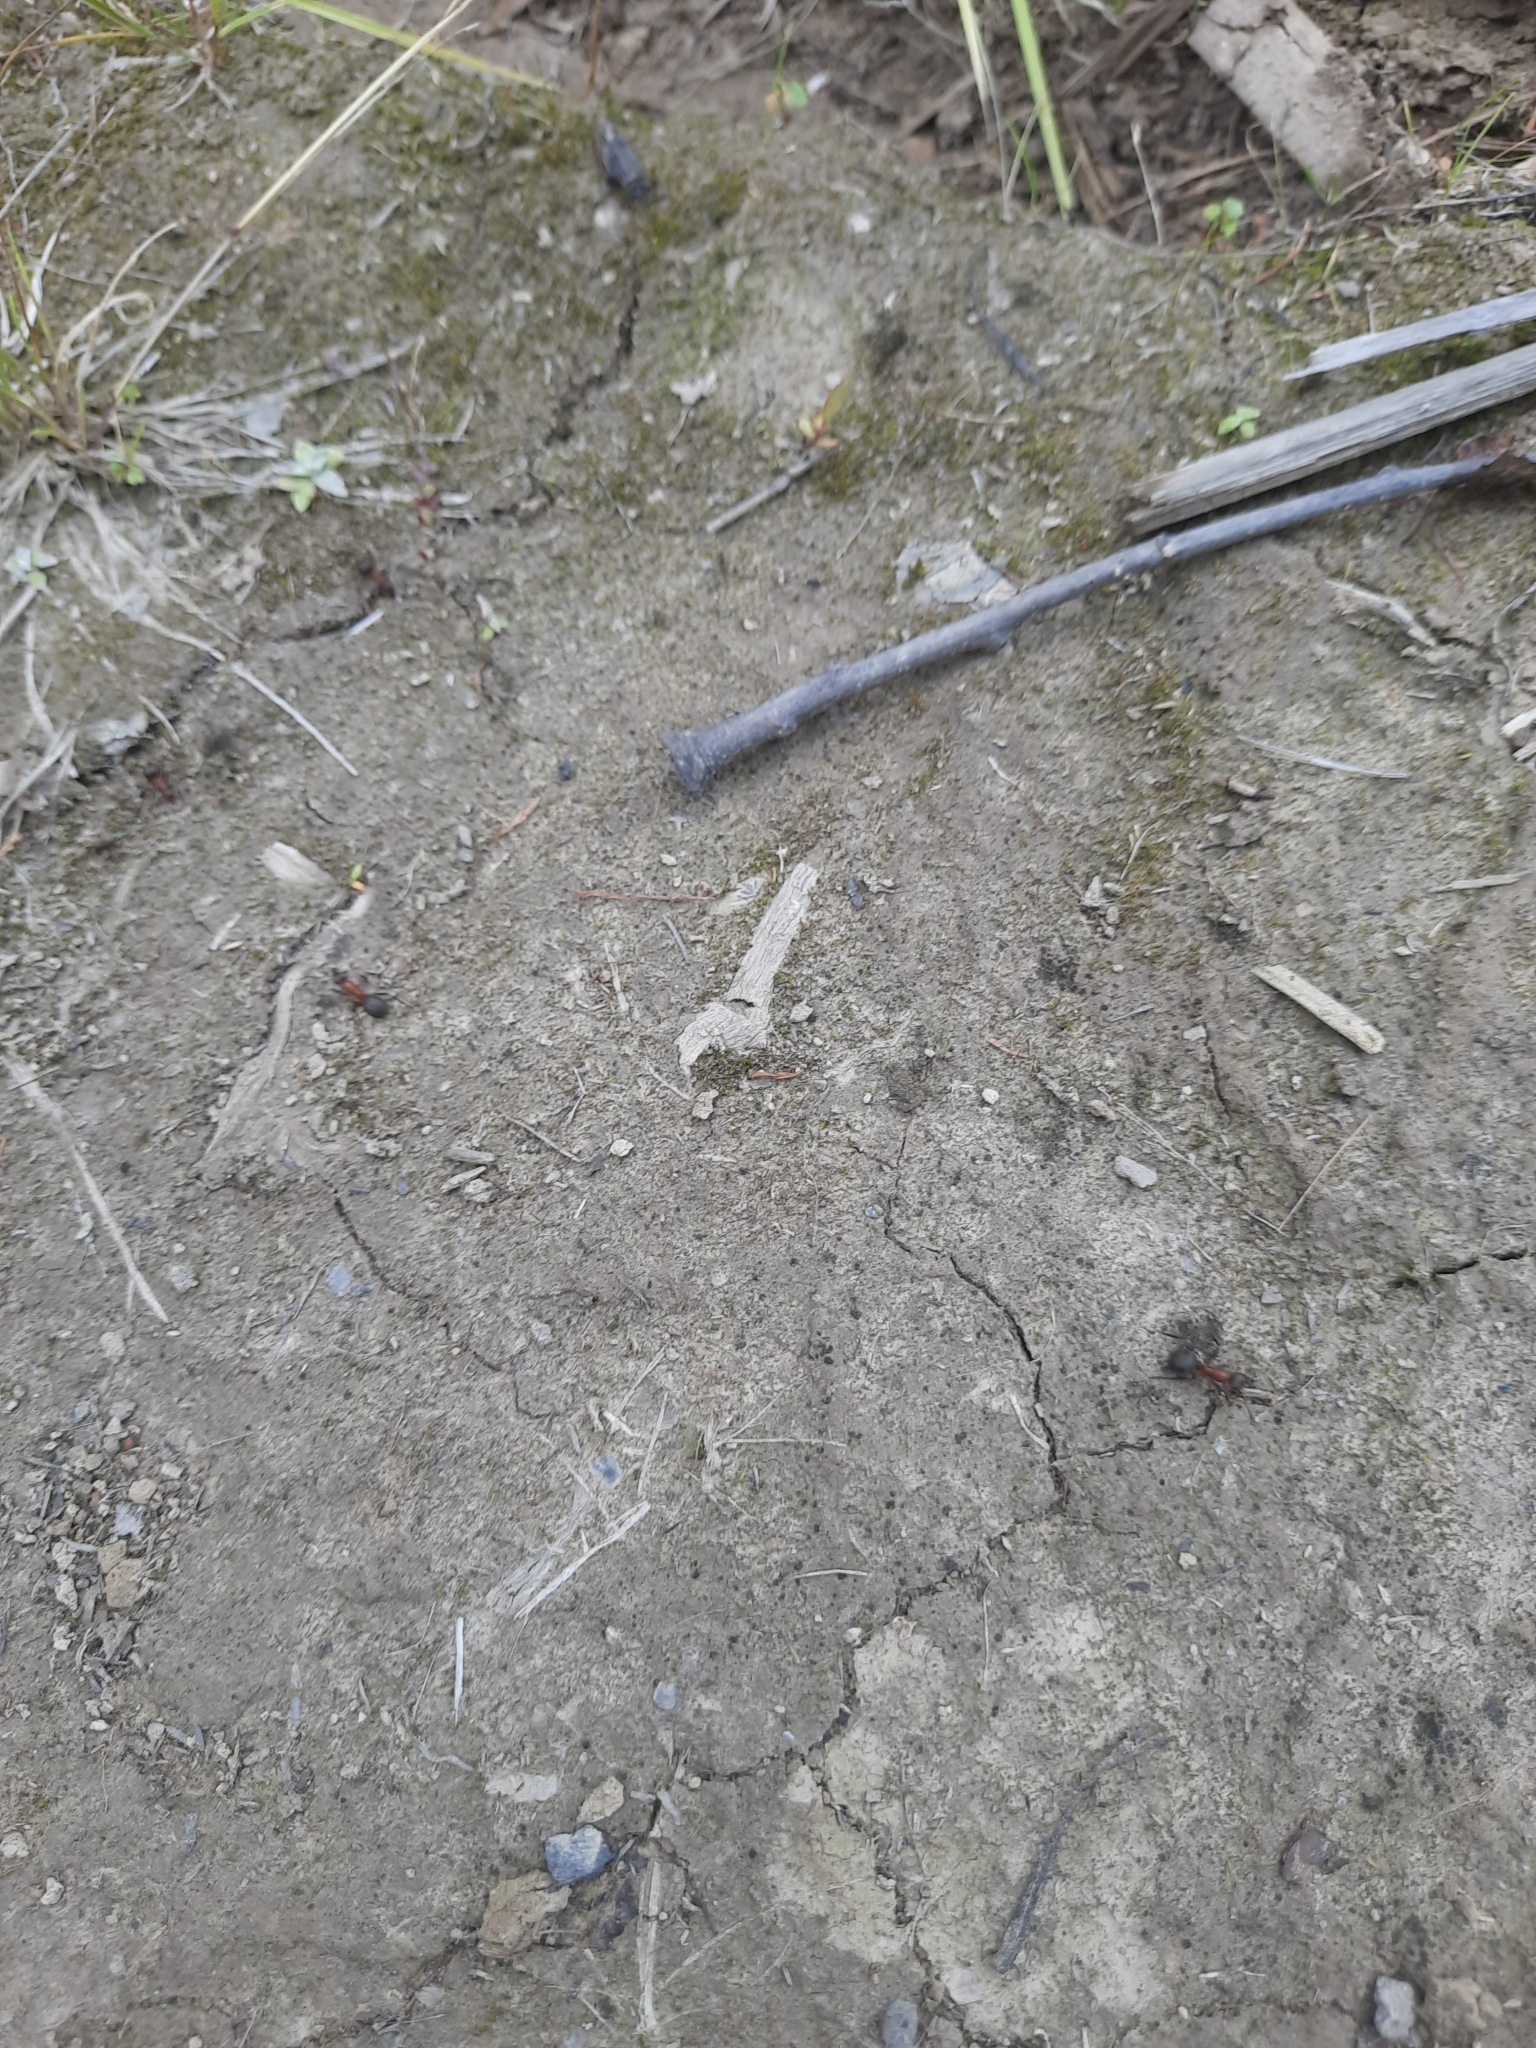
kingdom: Animalia
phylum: Arthropoda
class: Insecta
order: Hymenoptera
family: Formicidae
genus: Formica
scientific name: Formica rufa
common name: Red wood ant
